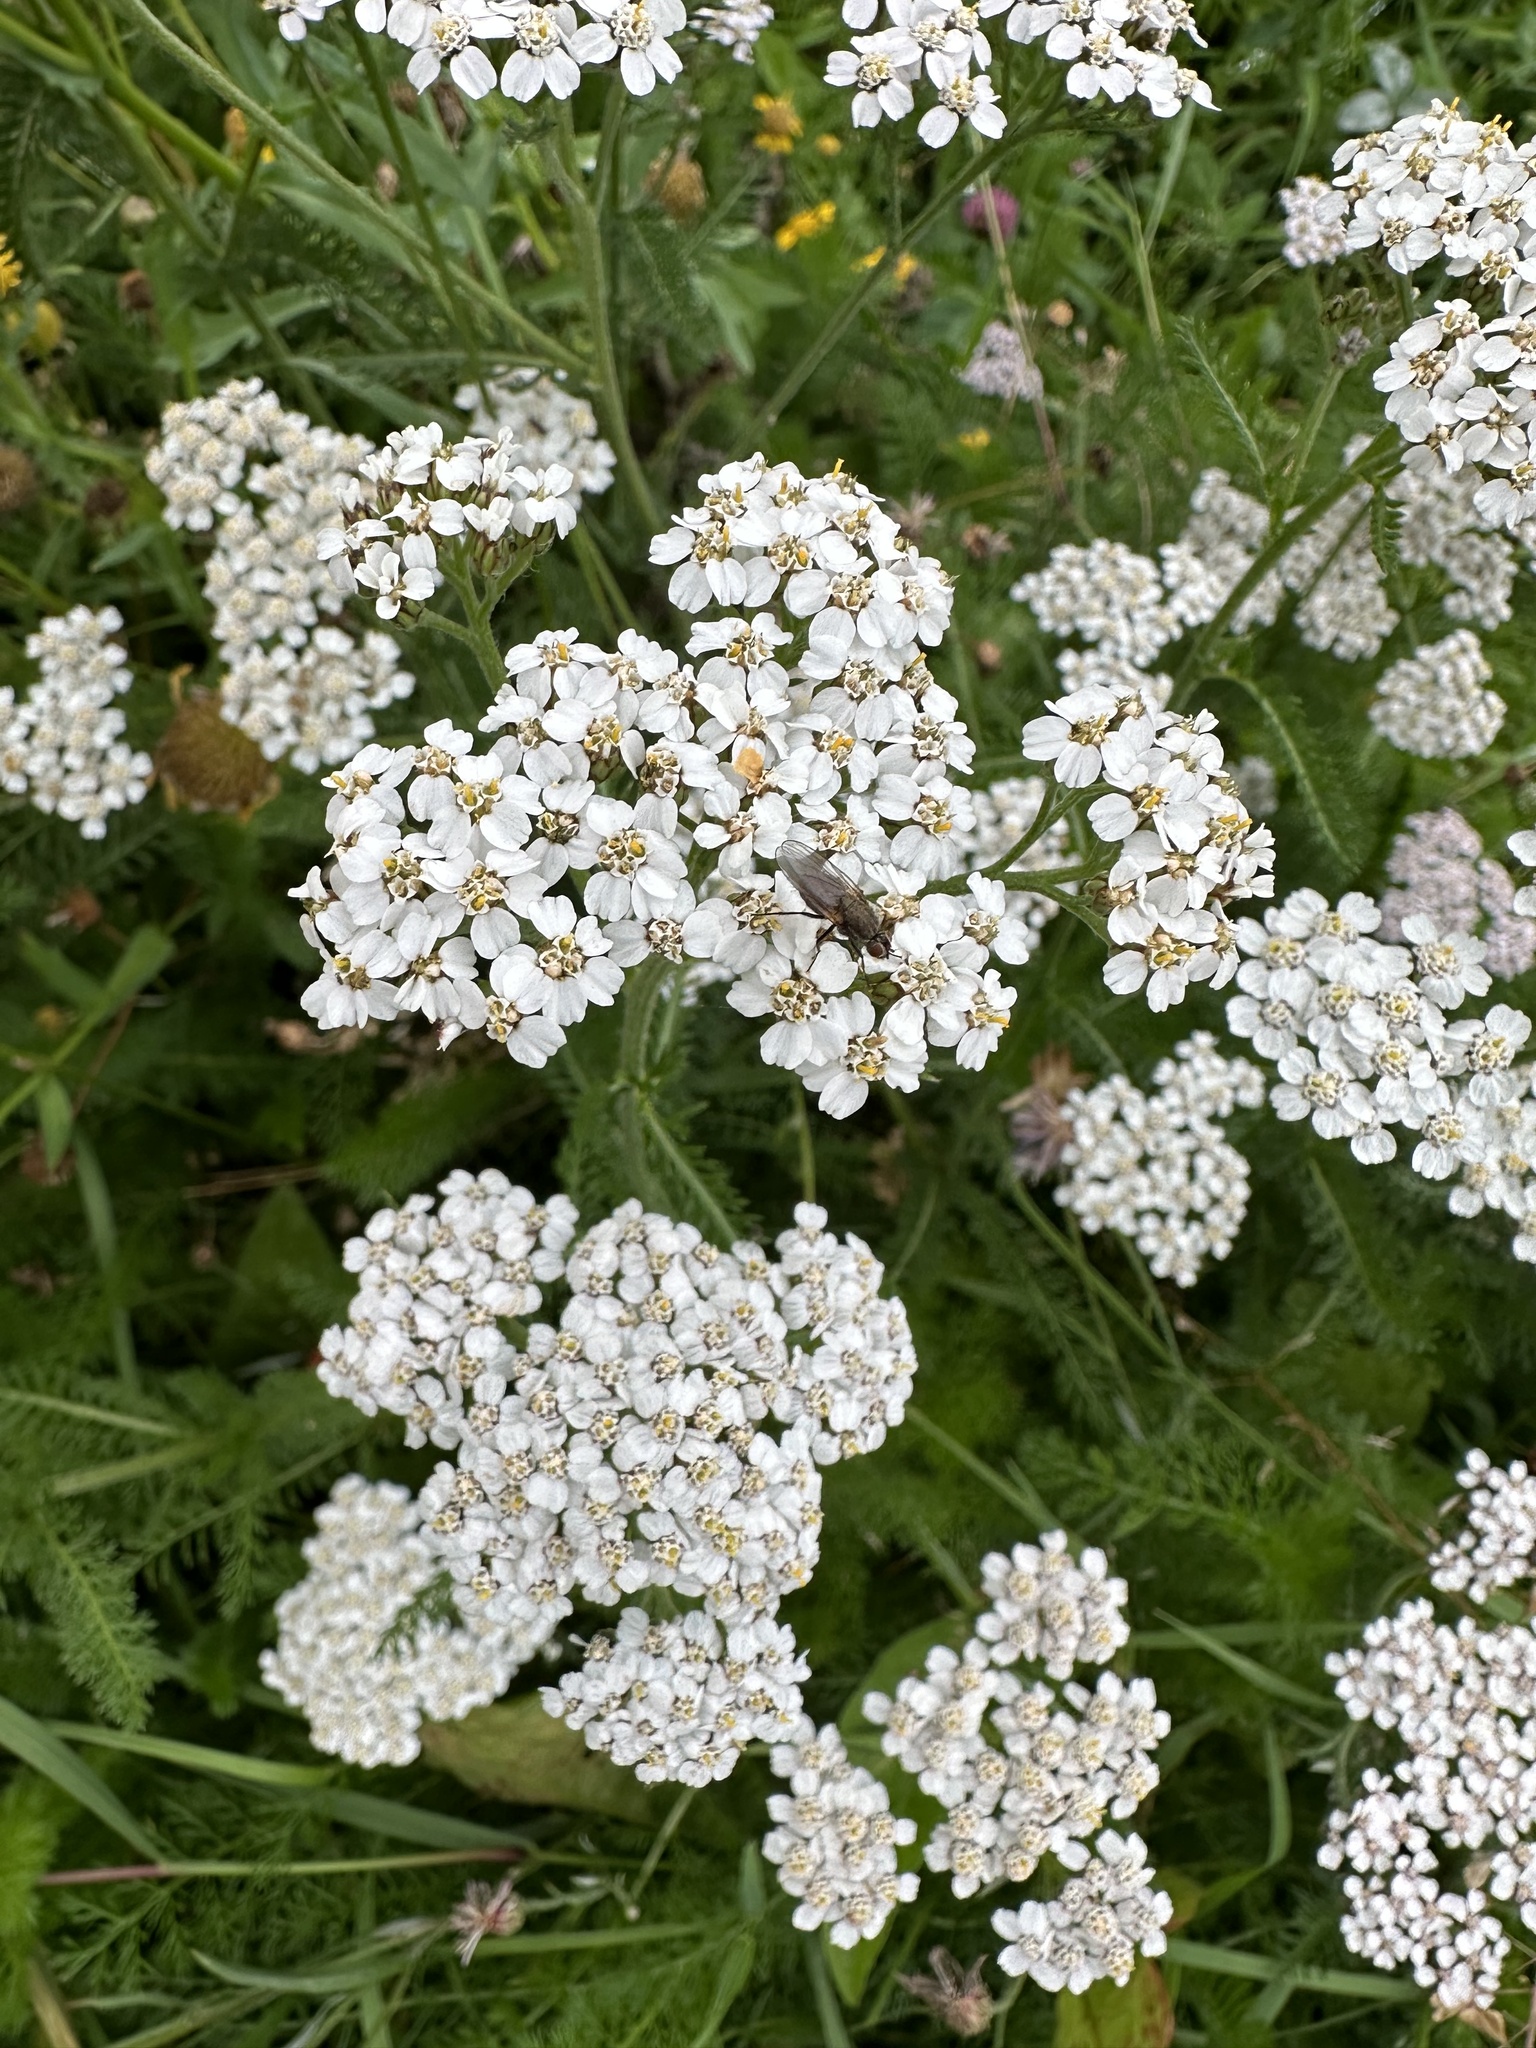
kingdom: Plantae
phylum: Tracheophyta
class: Magnoliopsida
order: Asterales
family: Asteraceae
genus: Achillea
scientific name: Achillea millefolium
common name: Yarrow
